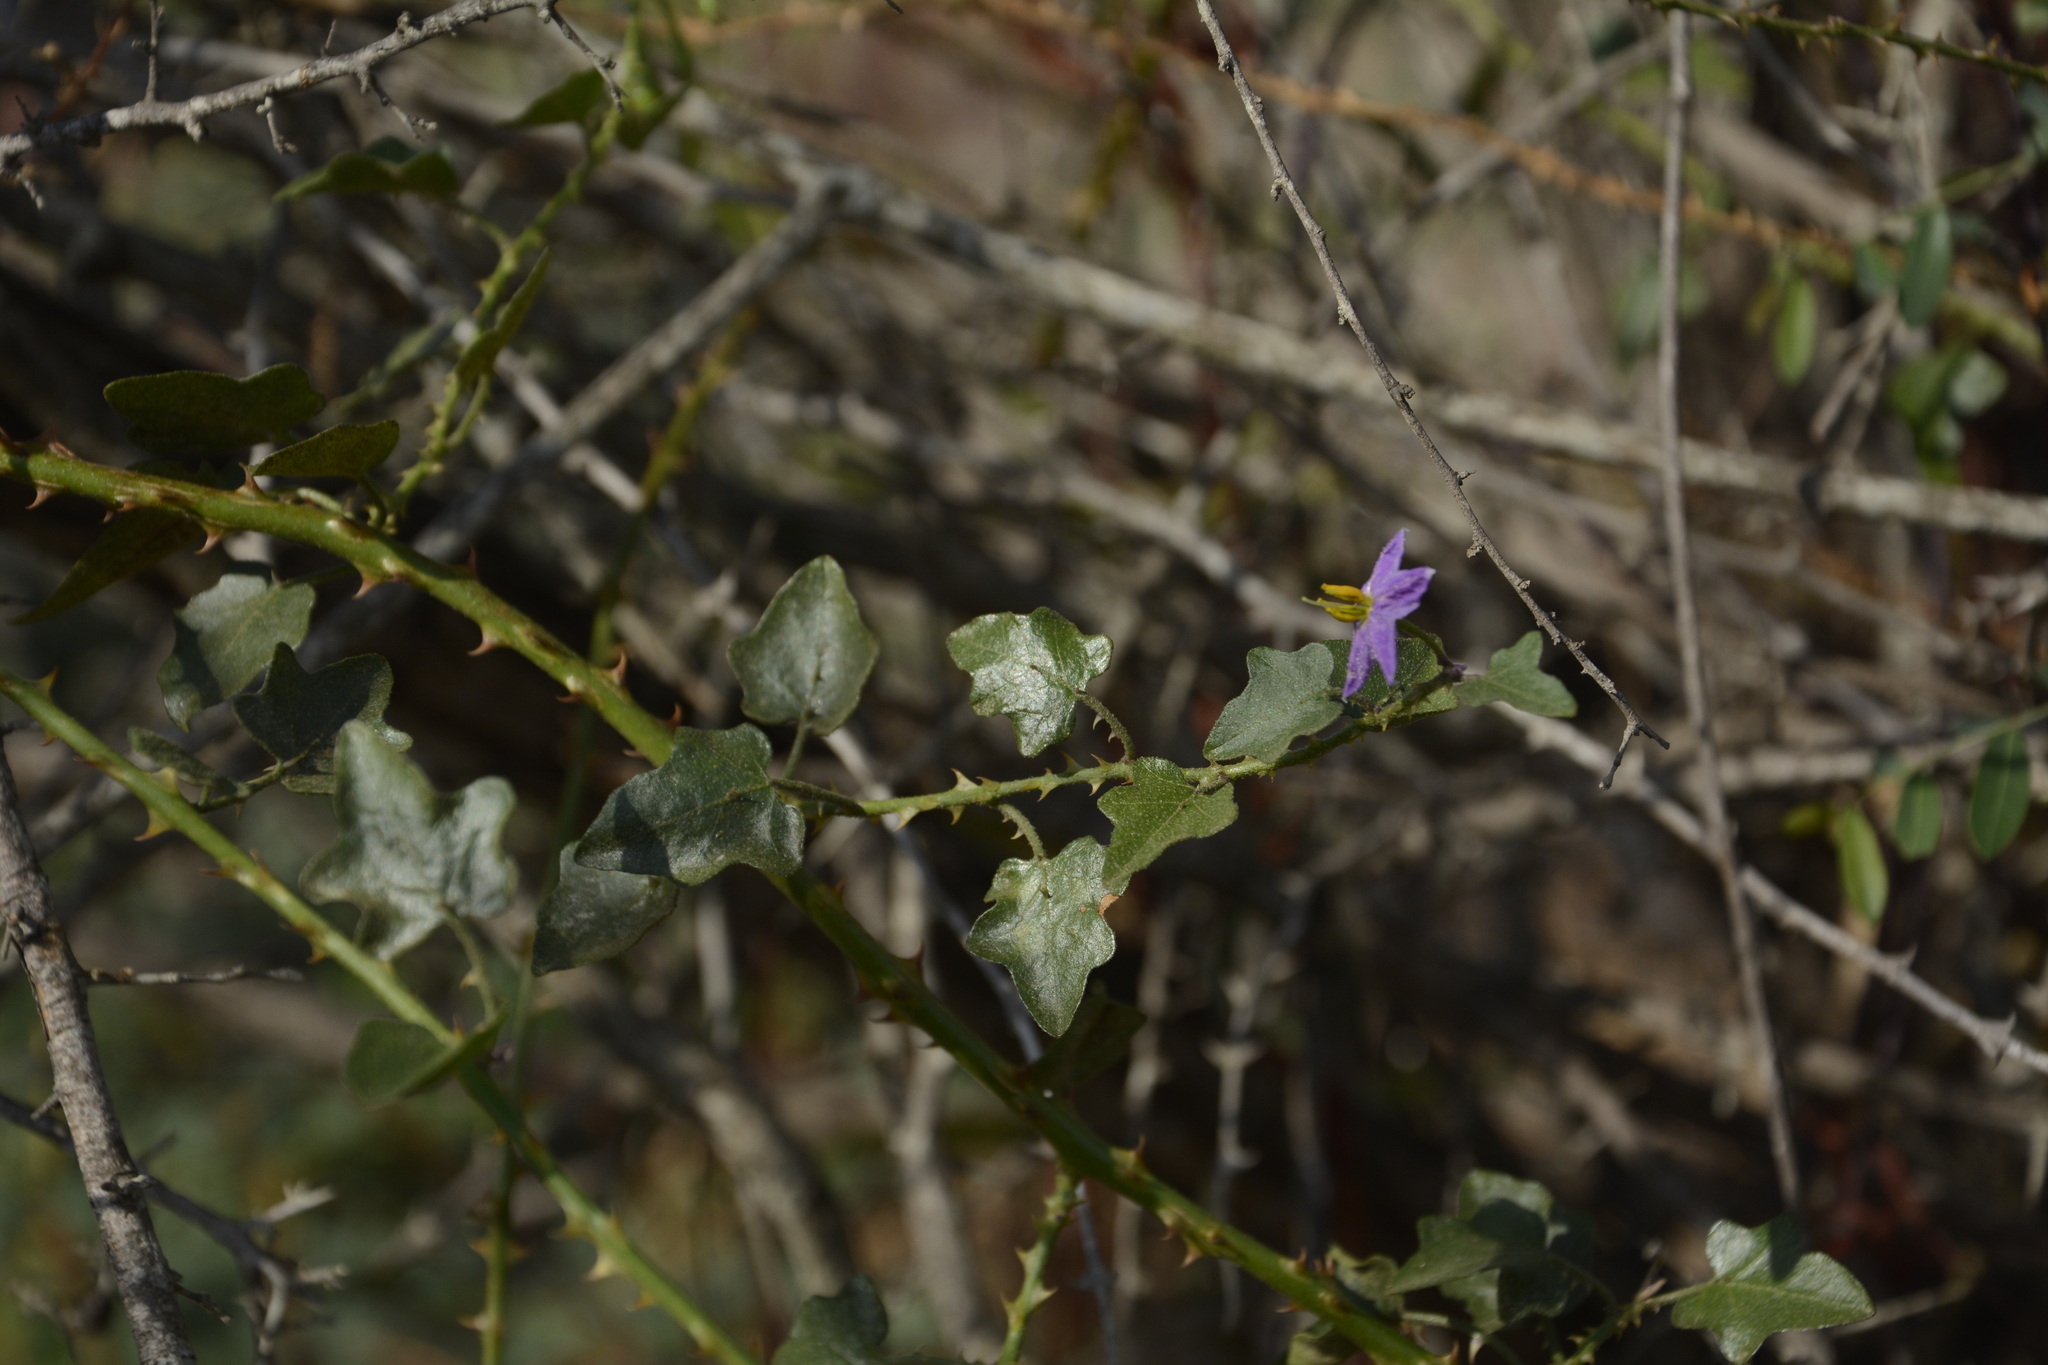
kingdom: Plantae
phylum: Tracheophyta
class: Magnoliopsida
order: Solanales
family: Solanaceae
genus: Solanum
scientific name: Solanum trilobatum
